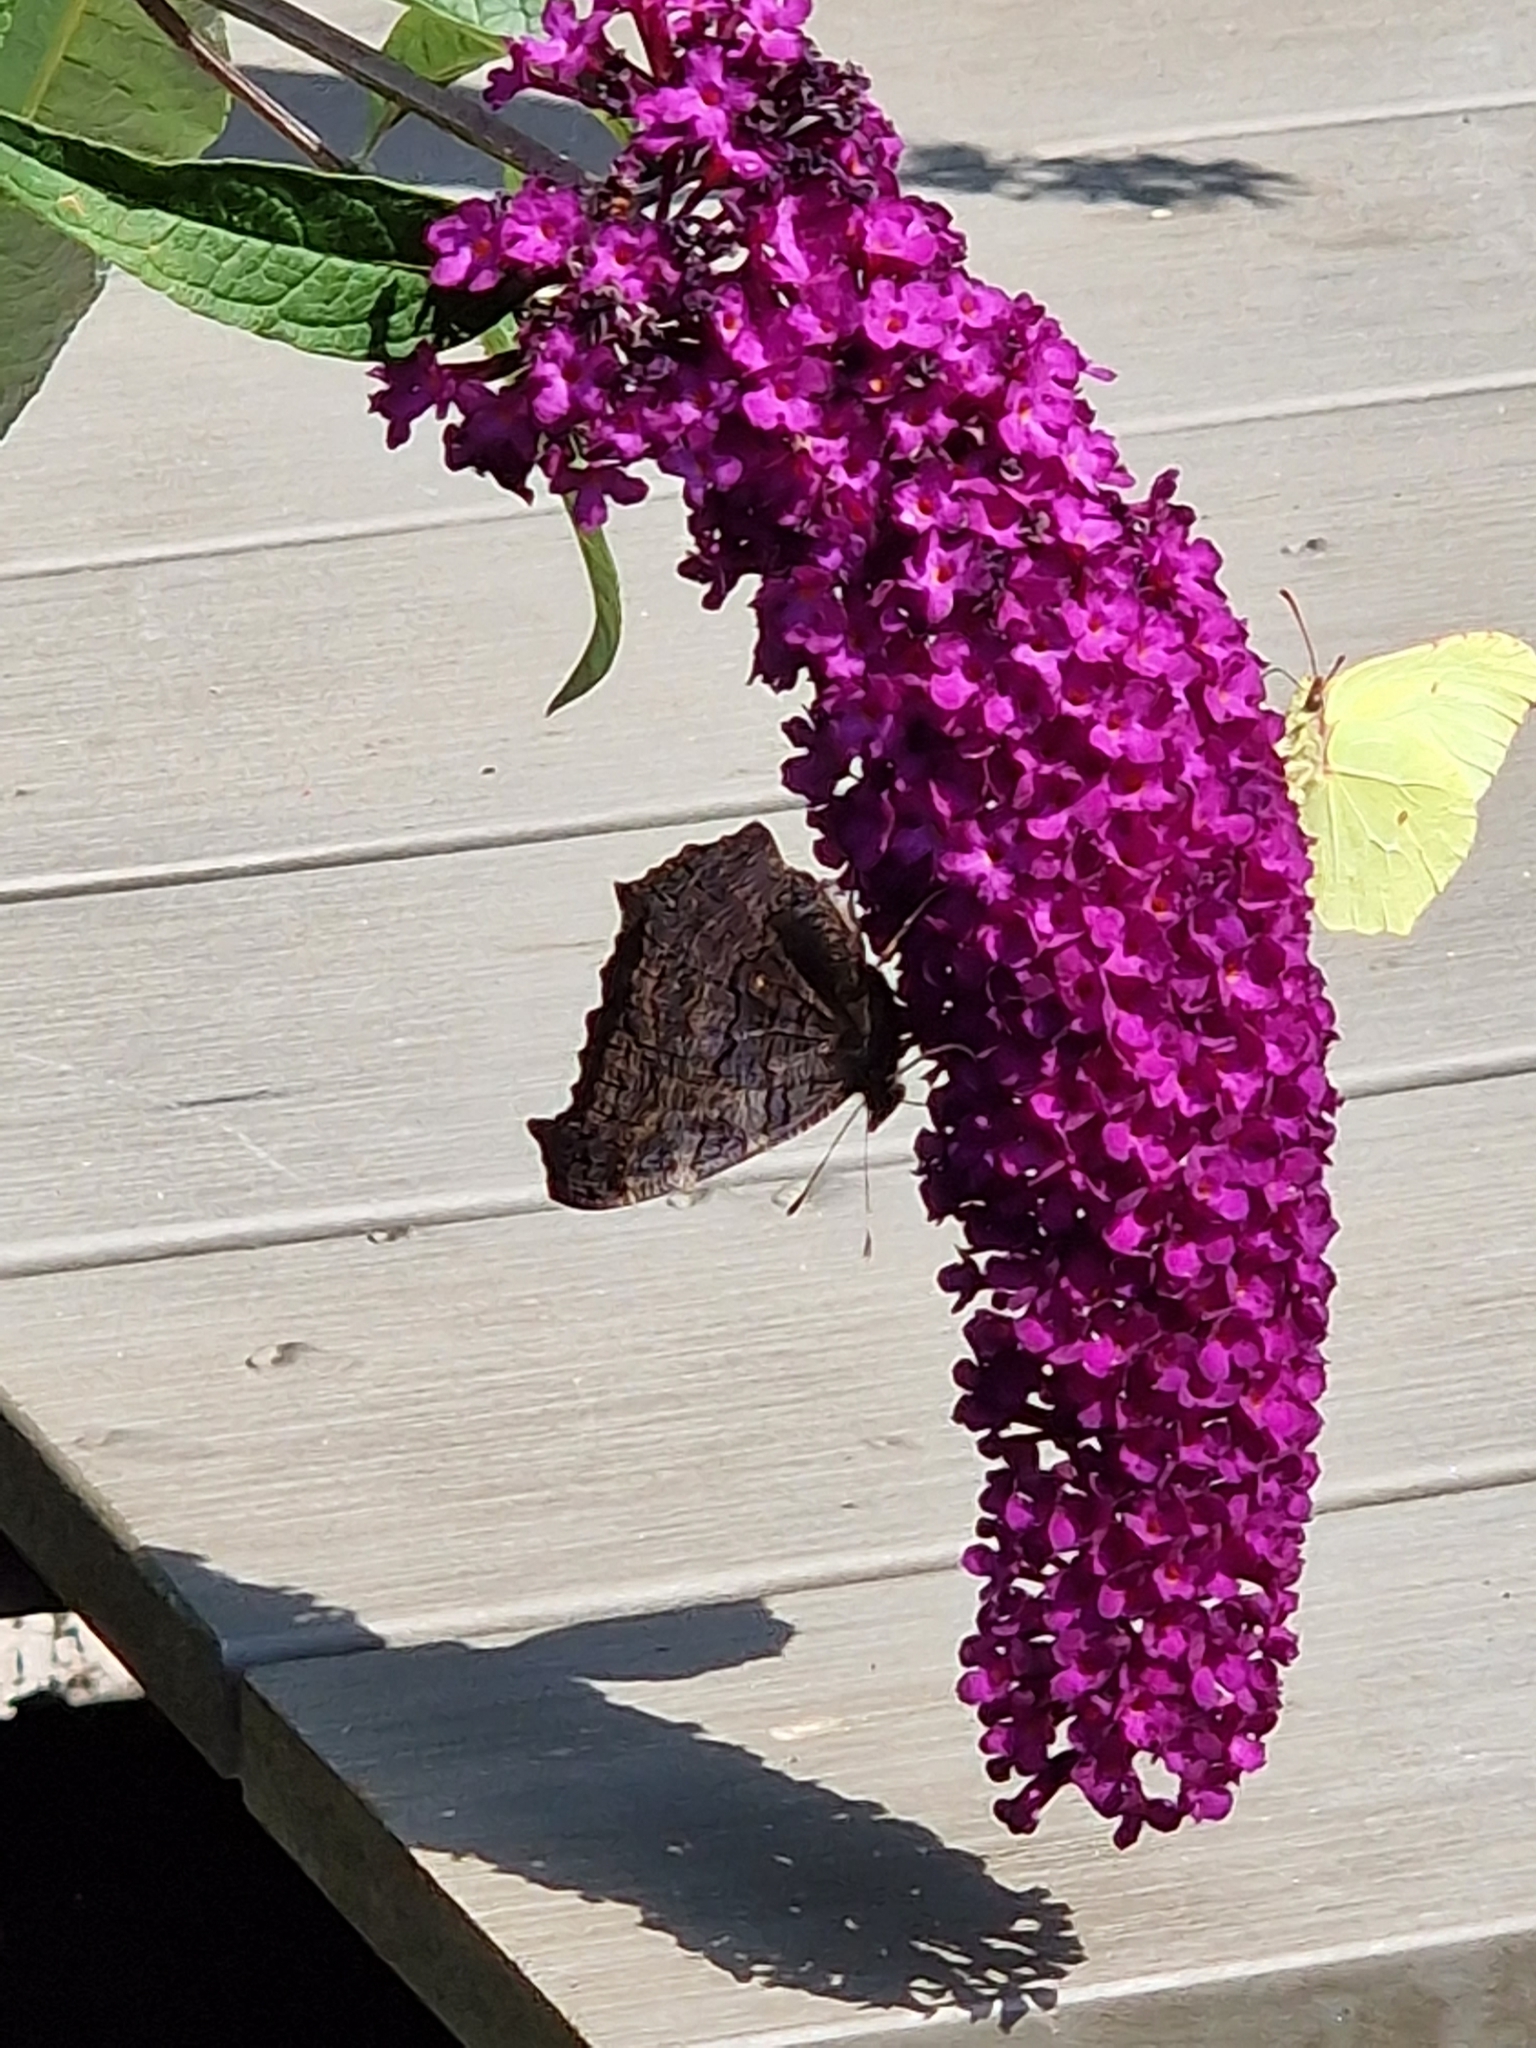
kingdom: Animalia
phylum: Arthropoda
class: Insecta
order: Lepidoptera
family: Nymphalidae
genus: Aglais
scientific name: Aglais io
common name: Peacock
